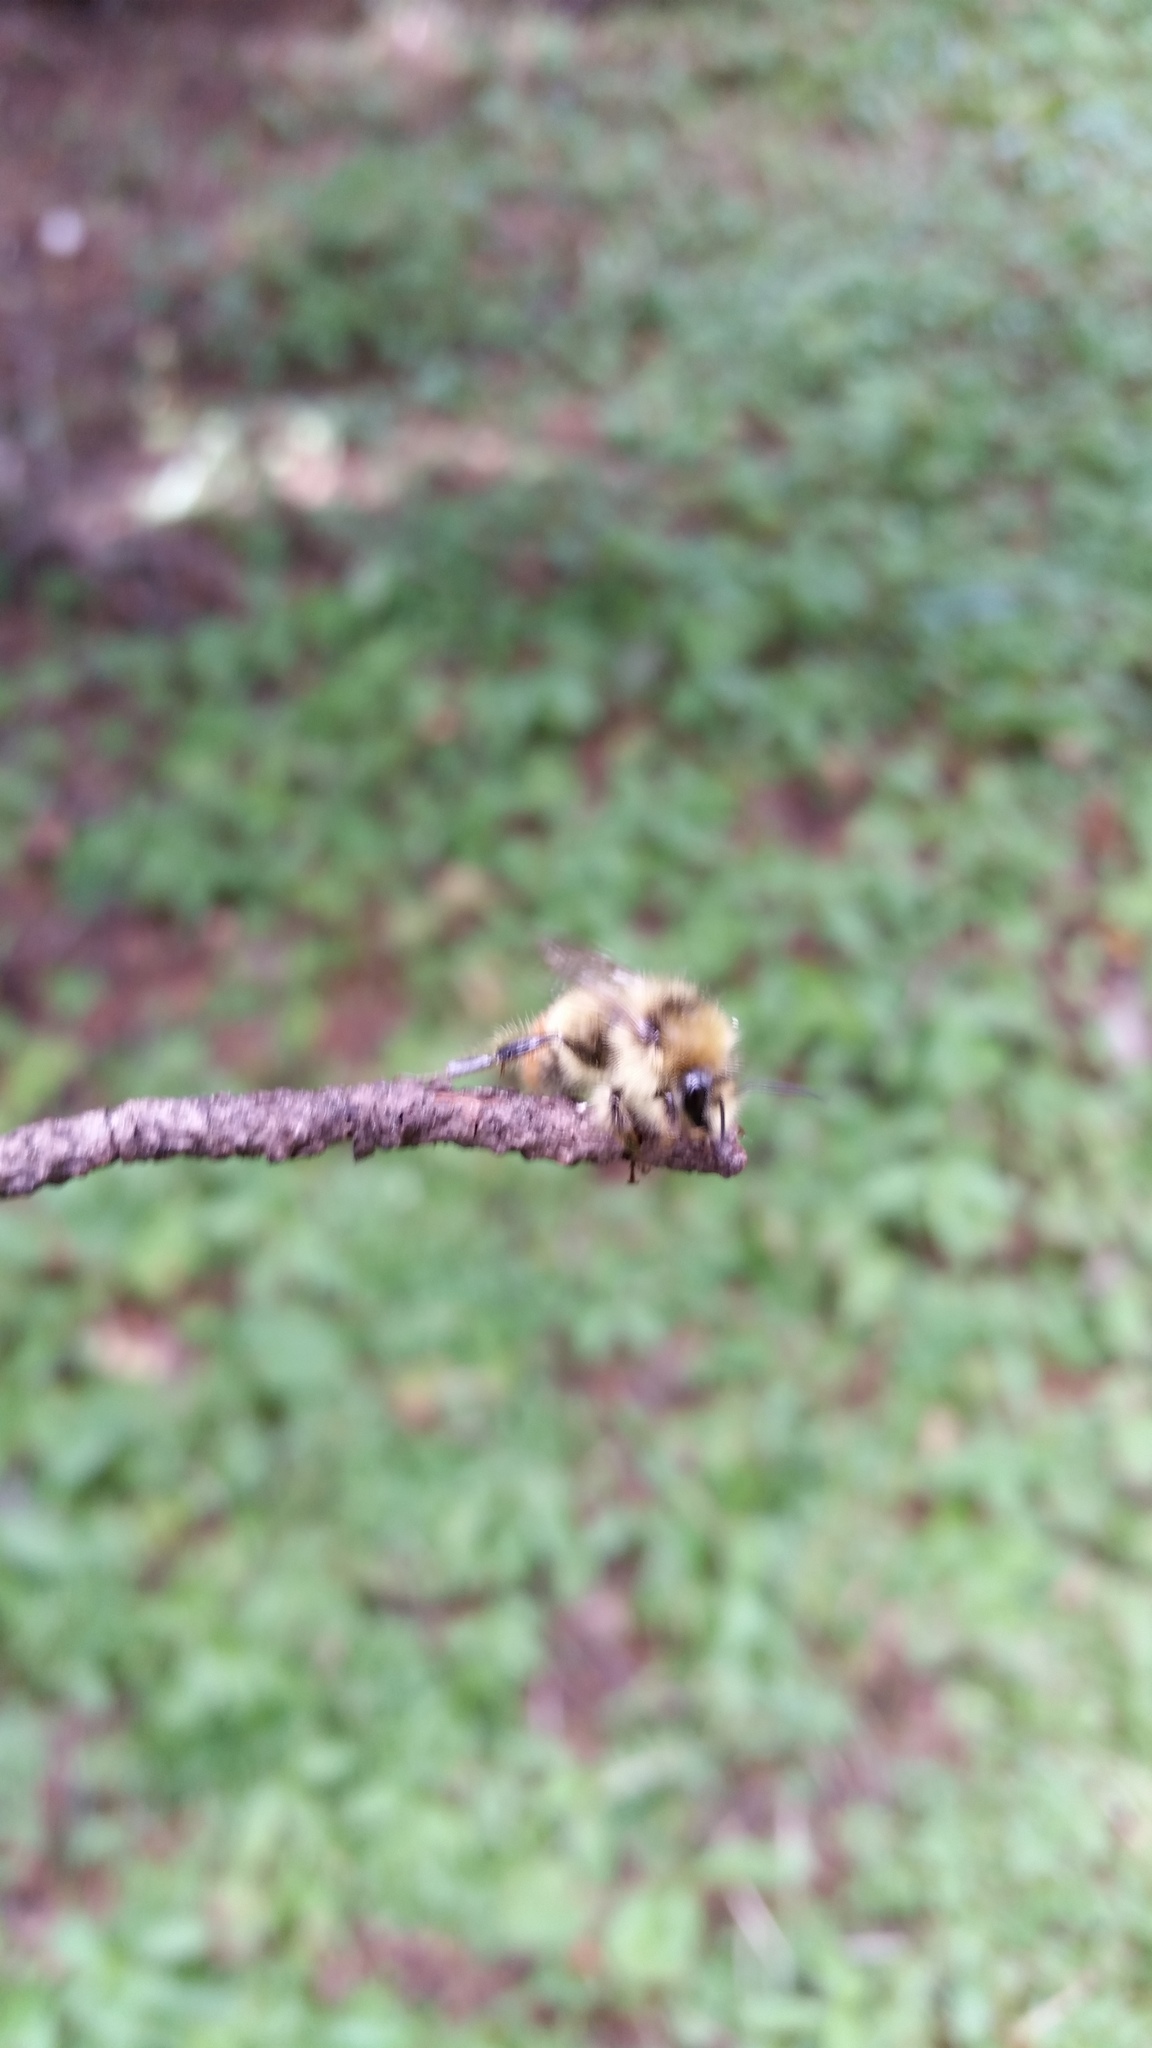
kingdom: Animalia
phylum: Arthropoda
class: Insecta
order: Hymenoptera
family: Apidae
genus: Bombus
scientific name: Bombus centralis
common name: Central bumble bee
